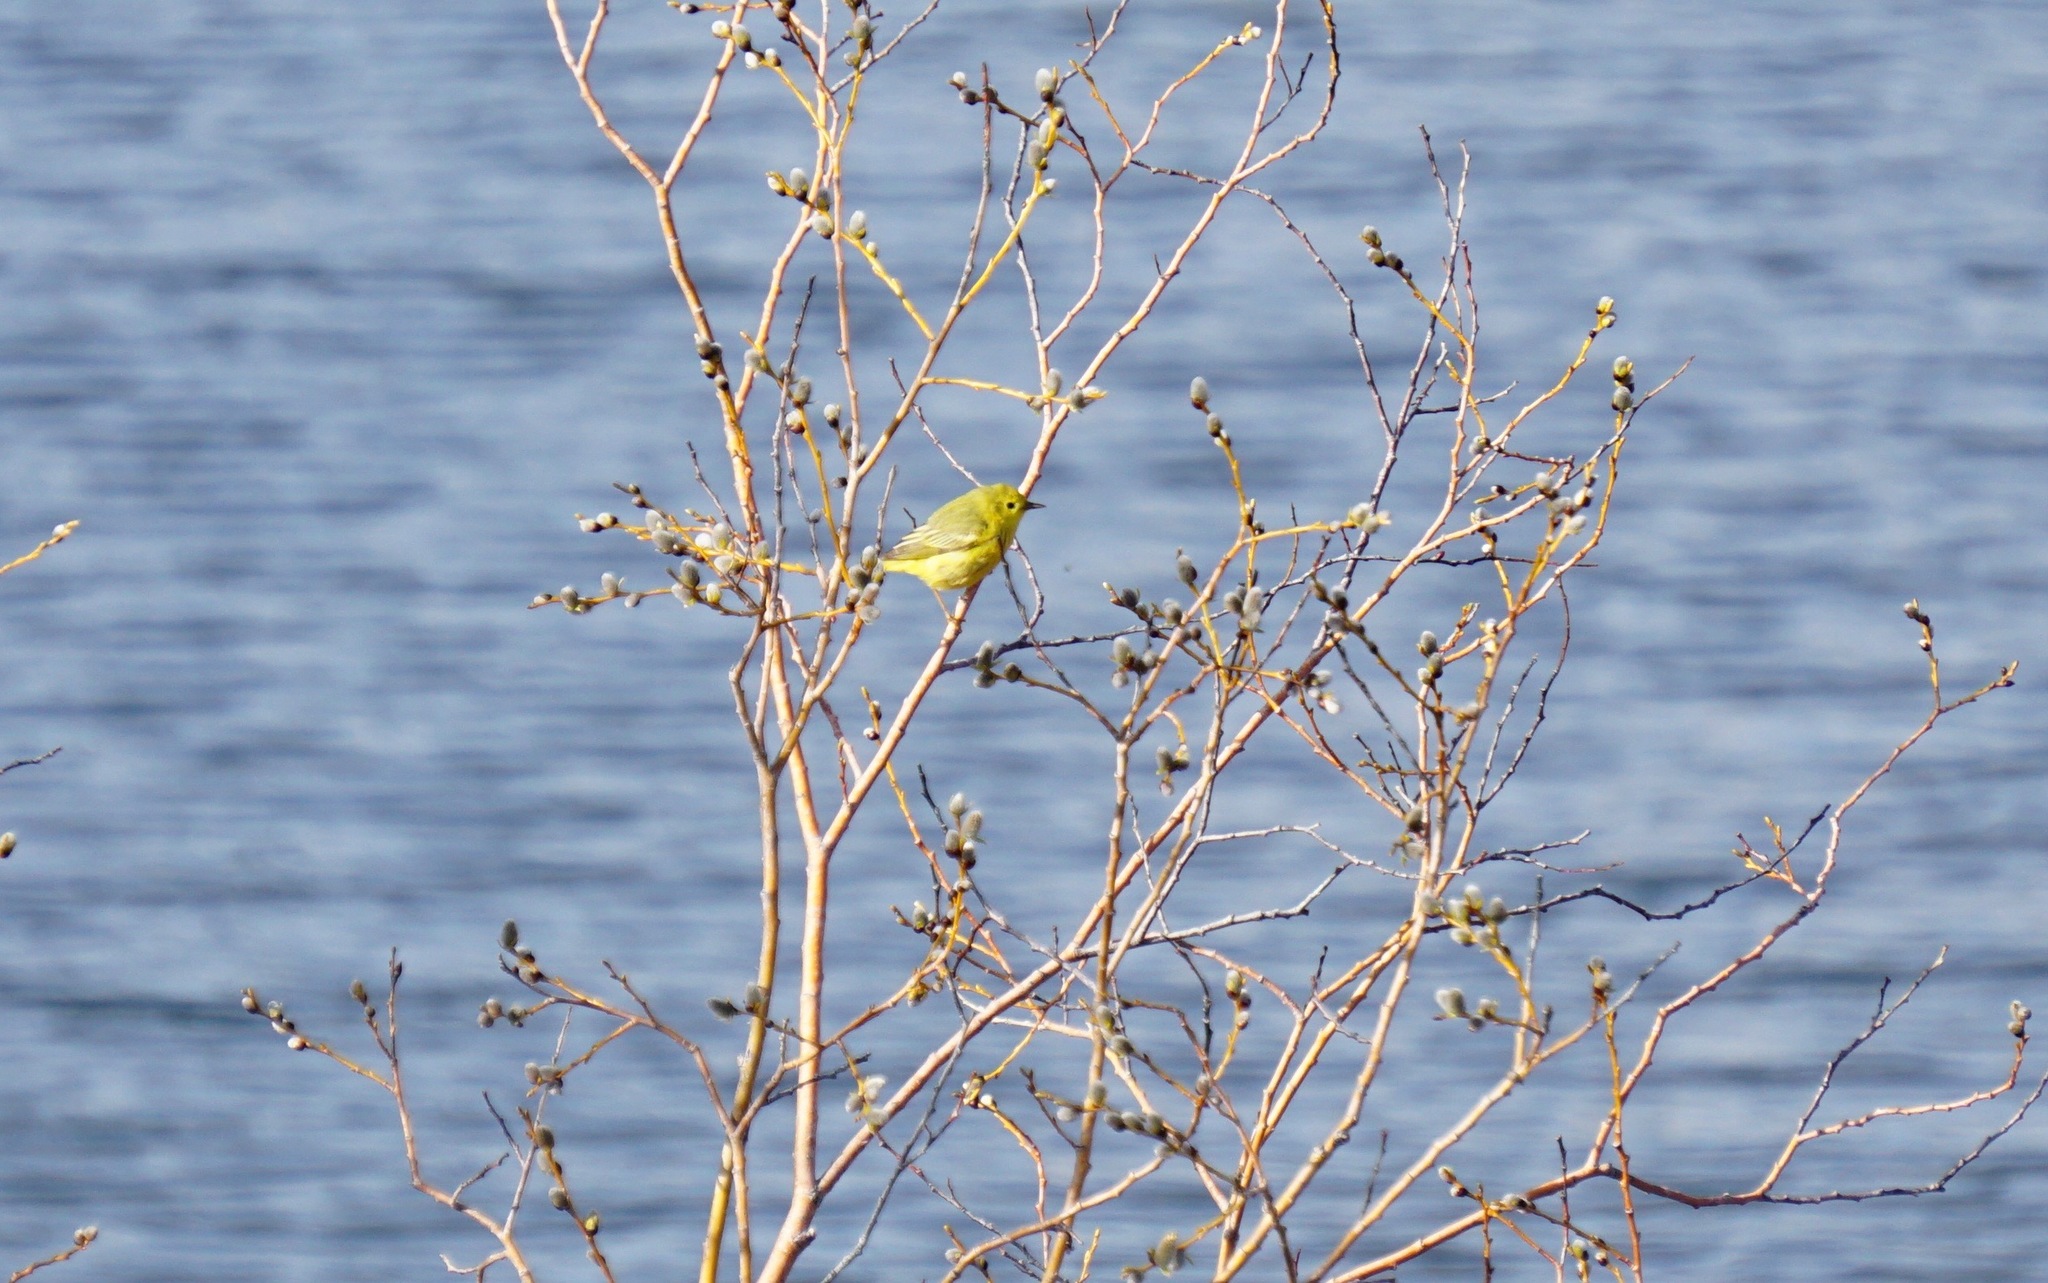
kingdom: Animalia
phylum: Chordata
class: Aves
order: Passeriformes
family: Parulidae
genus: Setophaga
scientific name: Setophaga petechia
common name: Yellow warbler
